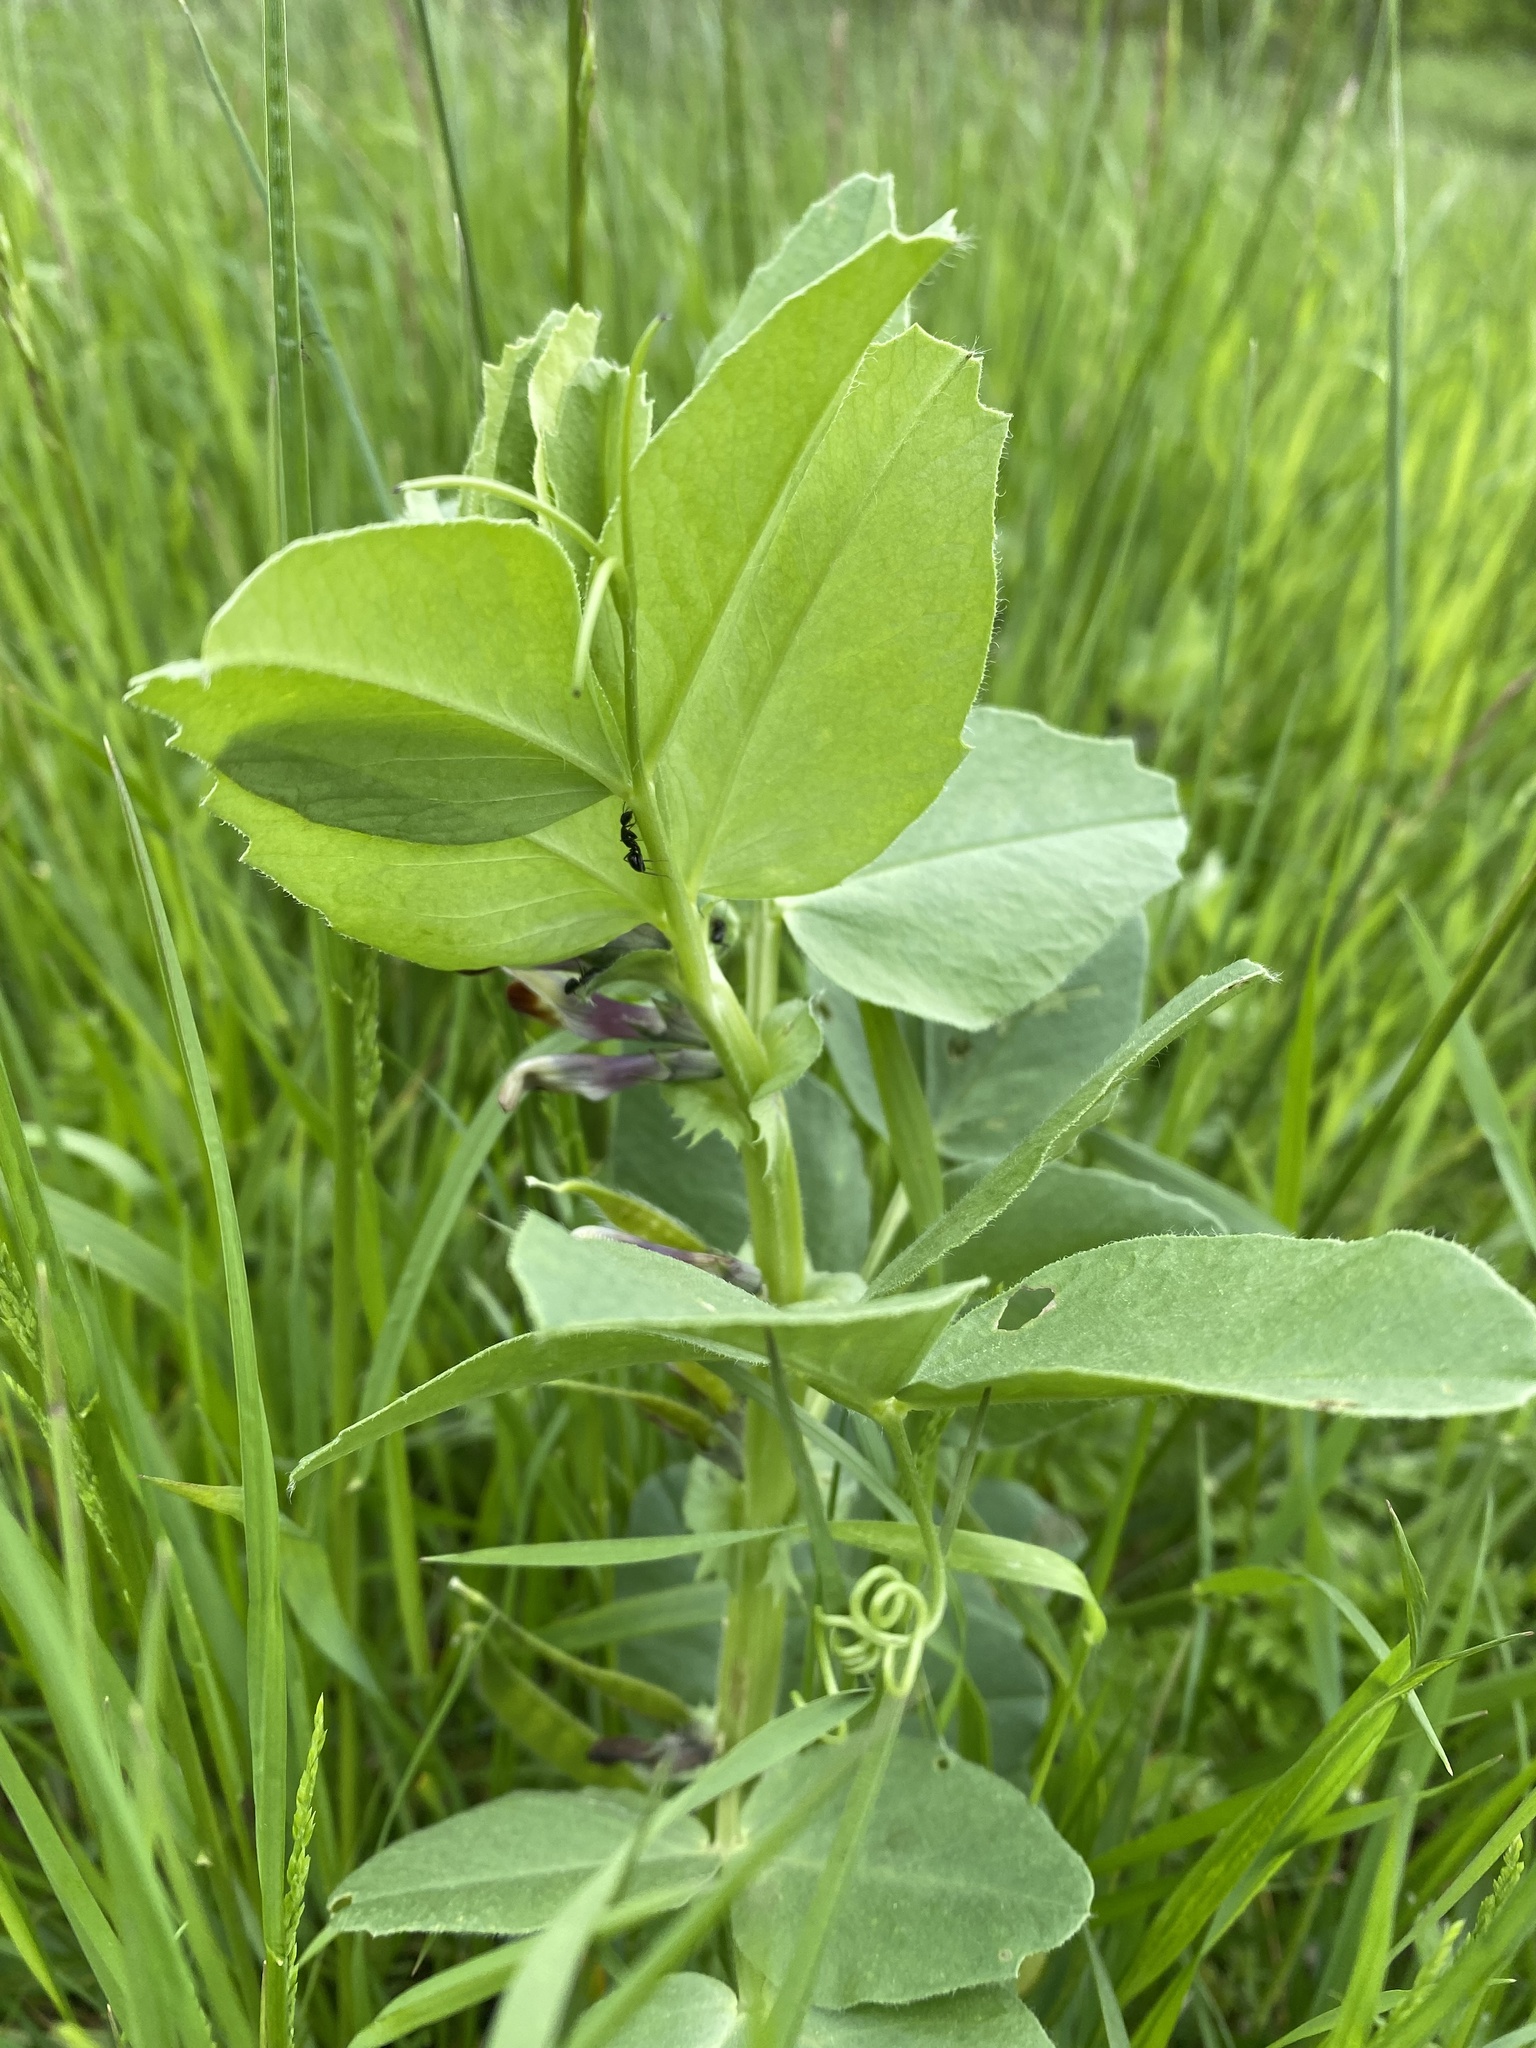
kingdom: Plantae
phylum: Tracheophyta
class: Magnoliopsida
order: Fabales
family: Fabaceae
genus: Vicia
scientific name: Vicia narbonensis
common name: Narbonne vetch
